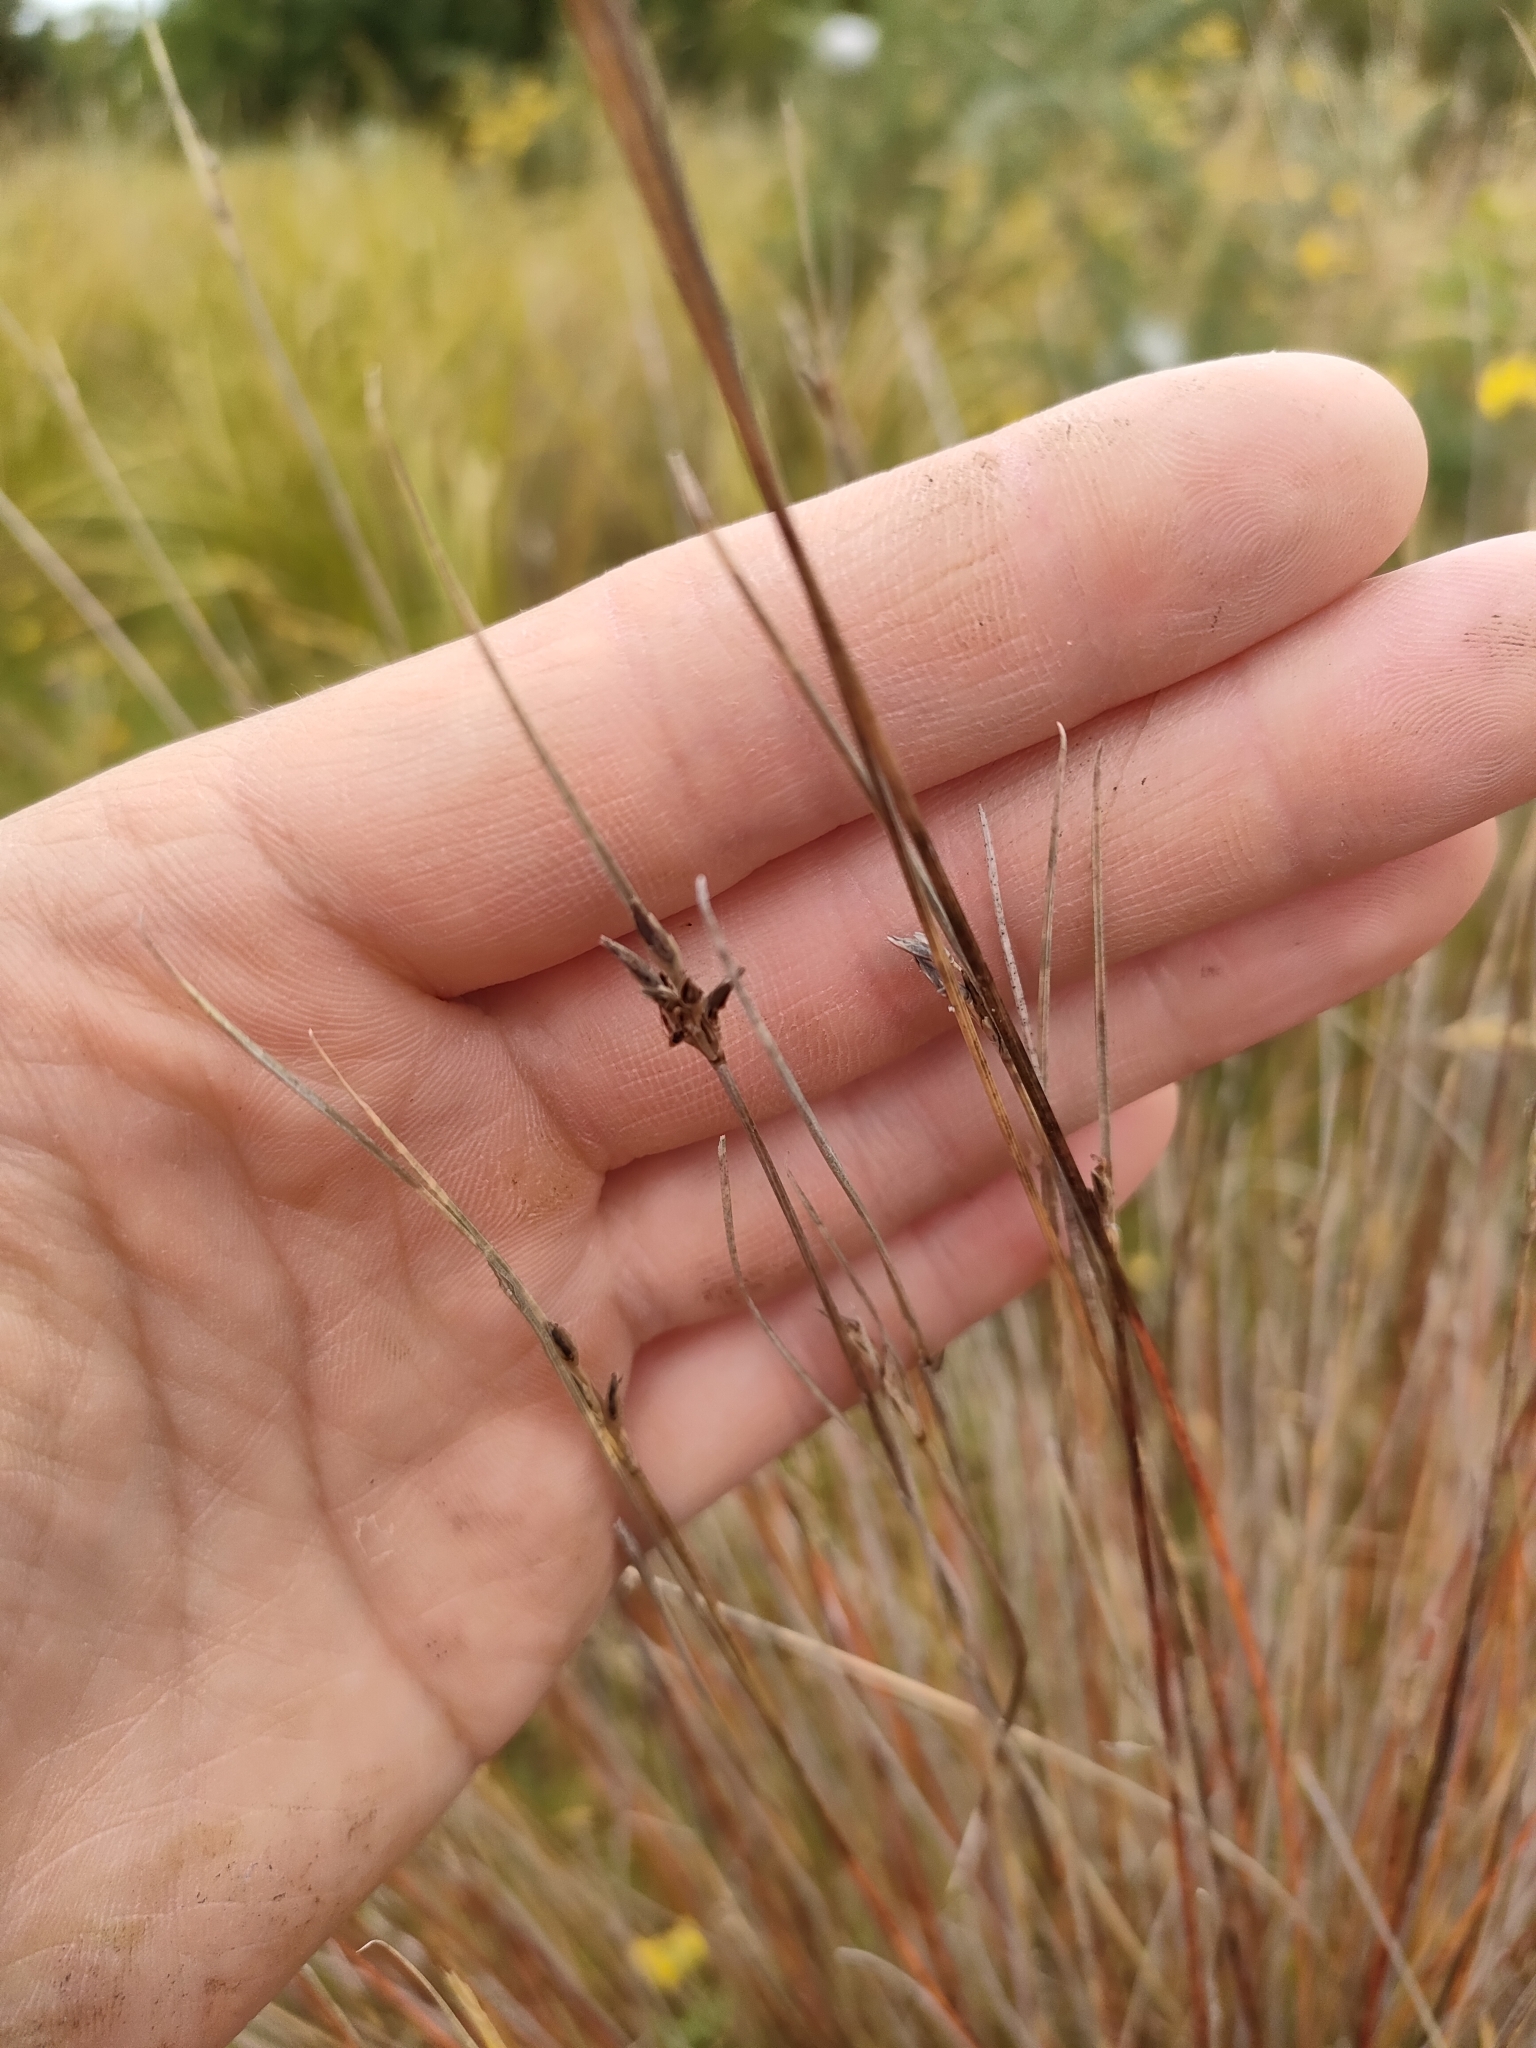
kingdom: Plantae
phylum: Tracheophyta
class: Liliopsida
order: Poales
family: Cyperaceae
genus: Schoenus
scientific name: Schoenus pauciflorus
